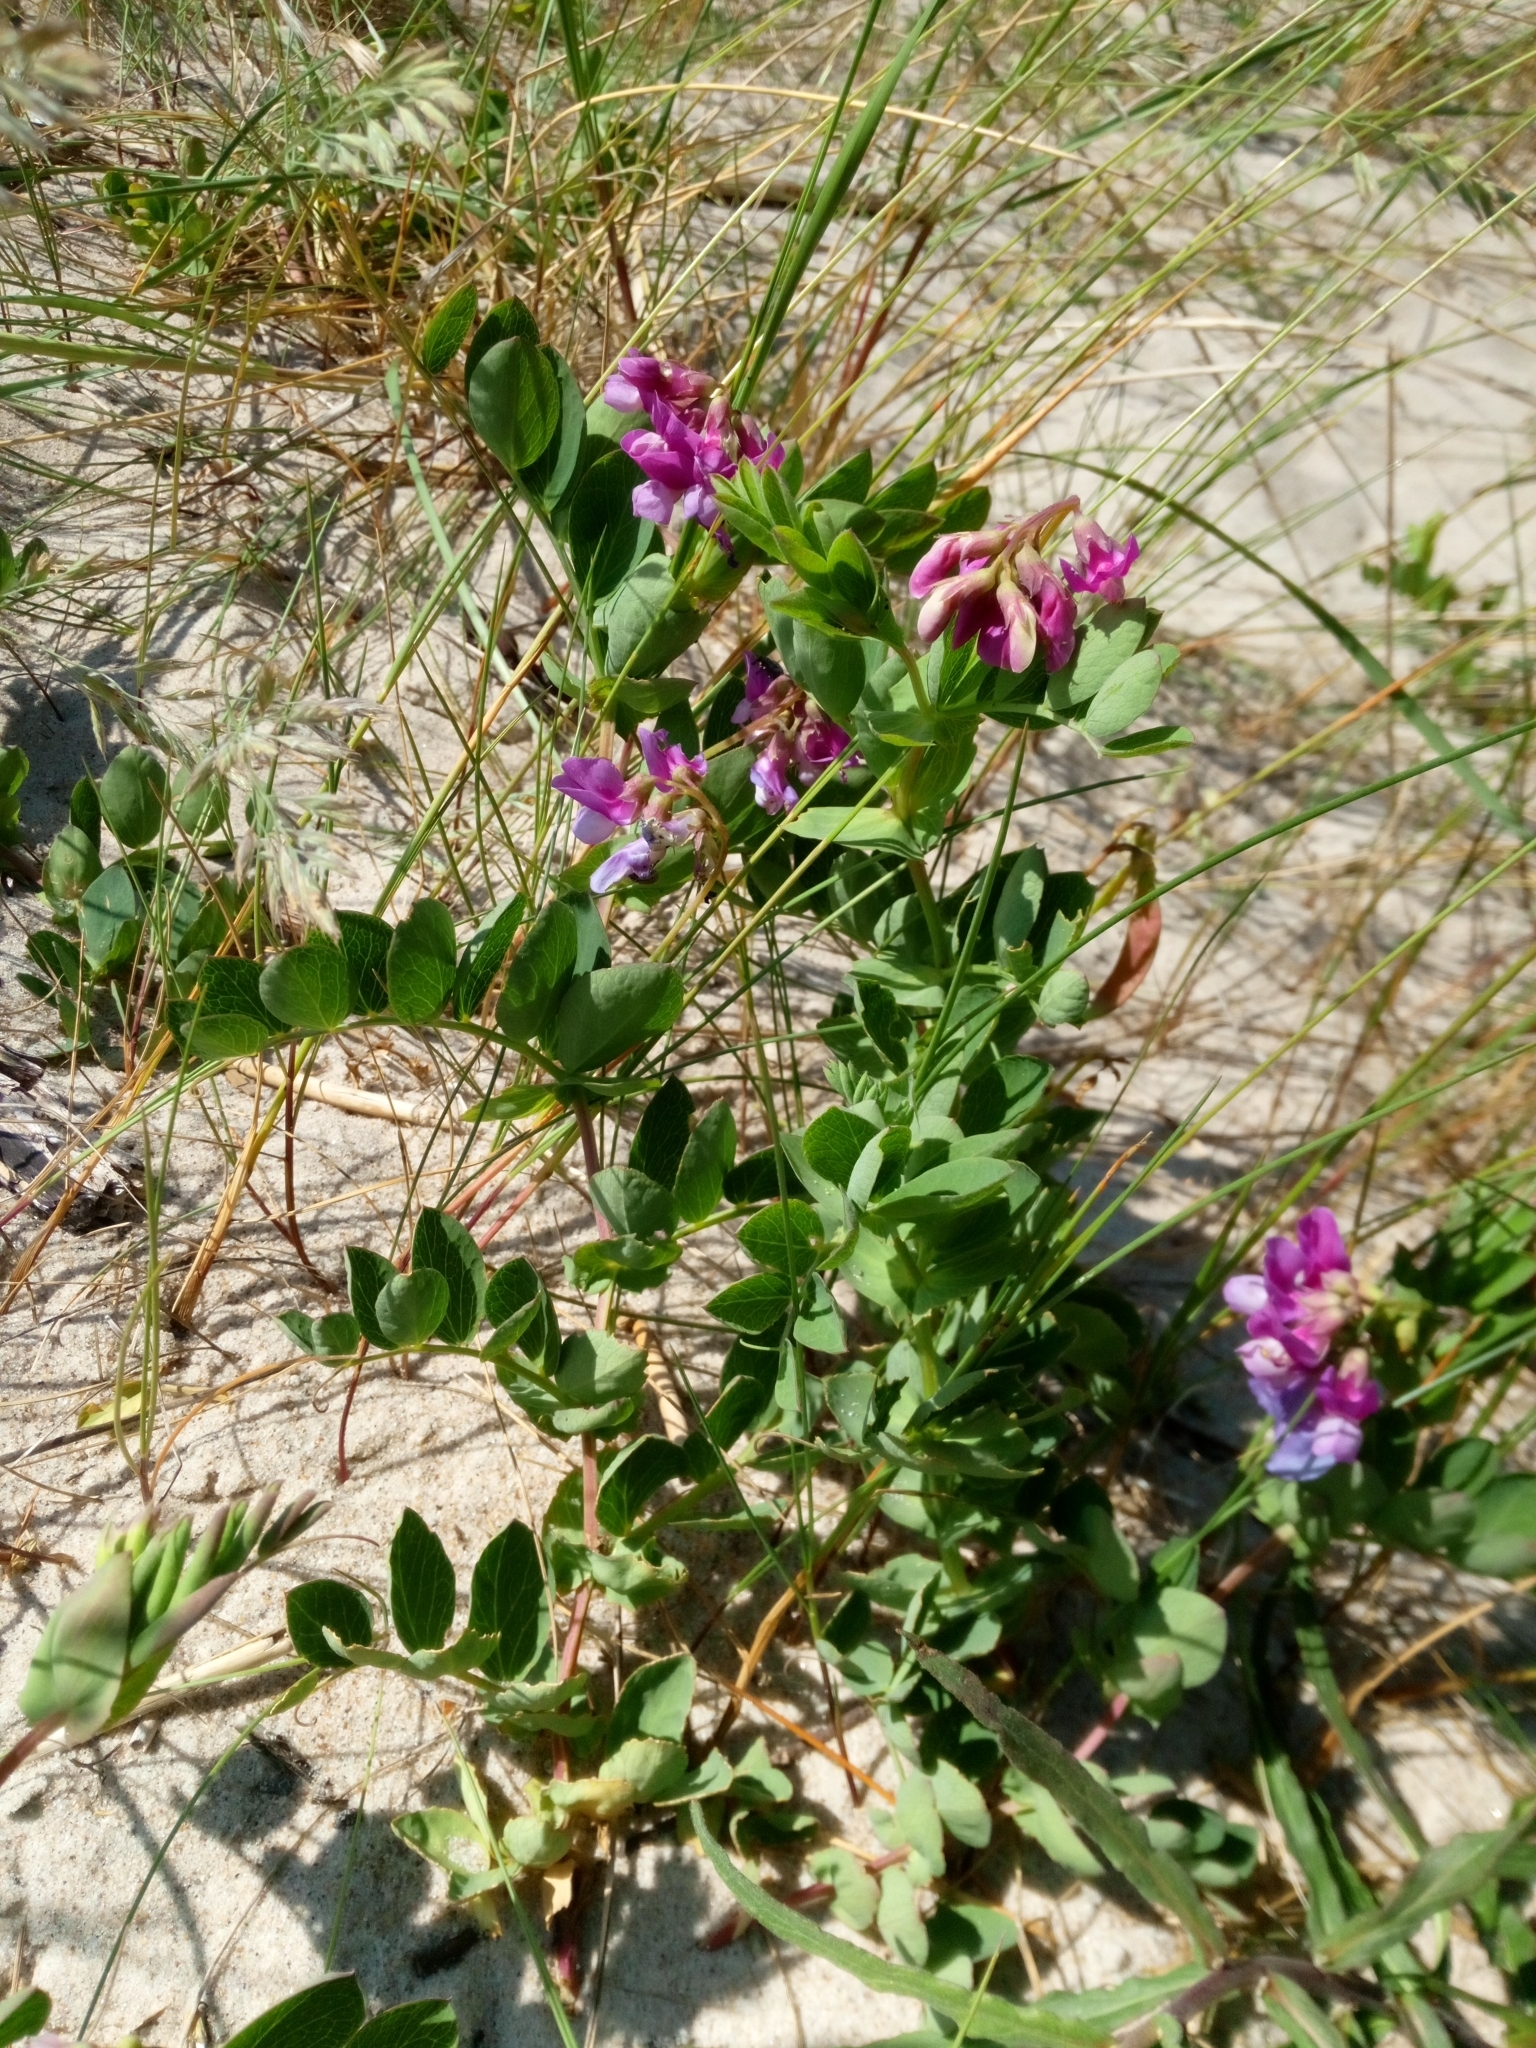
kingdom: Plantae
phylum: Tracheophyta
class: Magnoliopsida
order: Fabales
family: Fabaceae
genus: Lathyrus
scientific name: Lathyrus japonicus
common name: Sea pea
